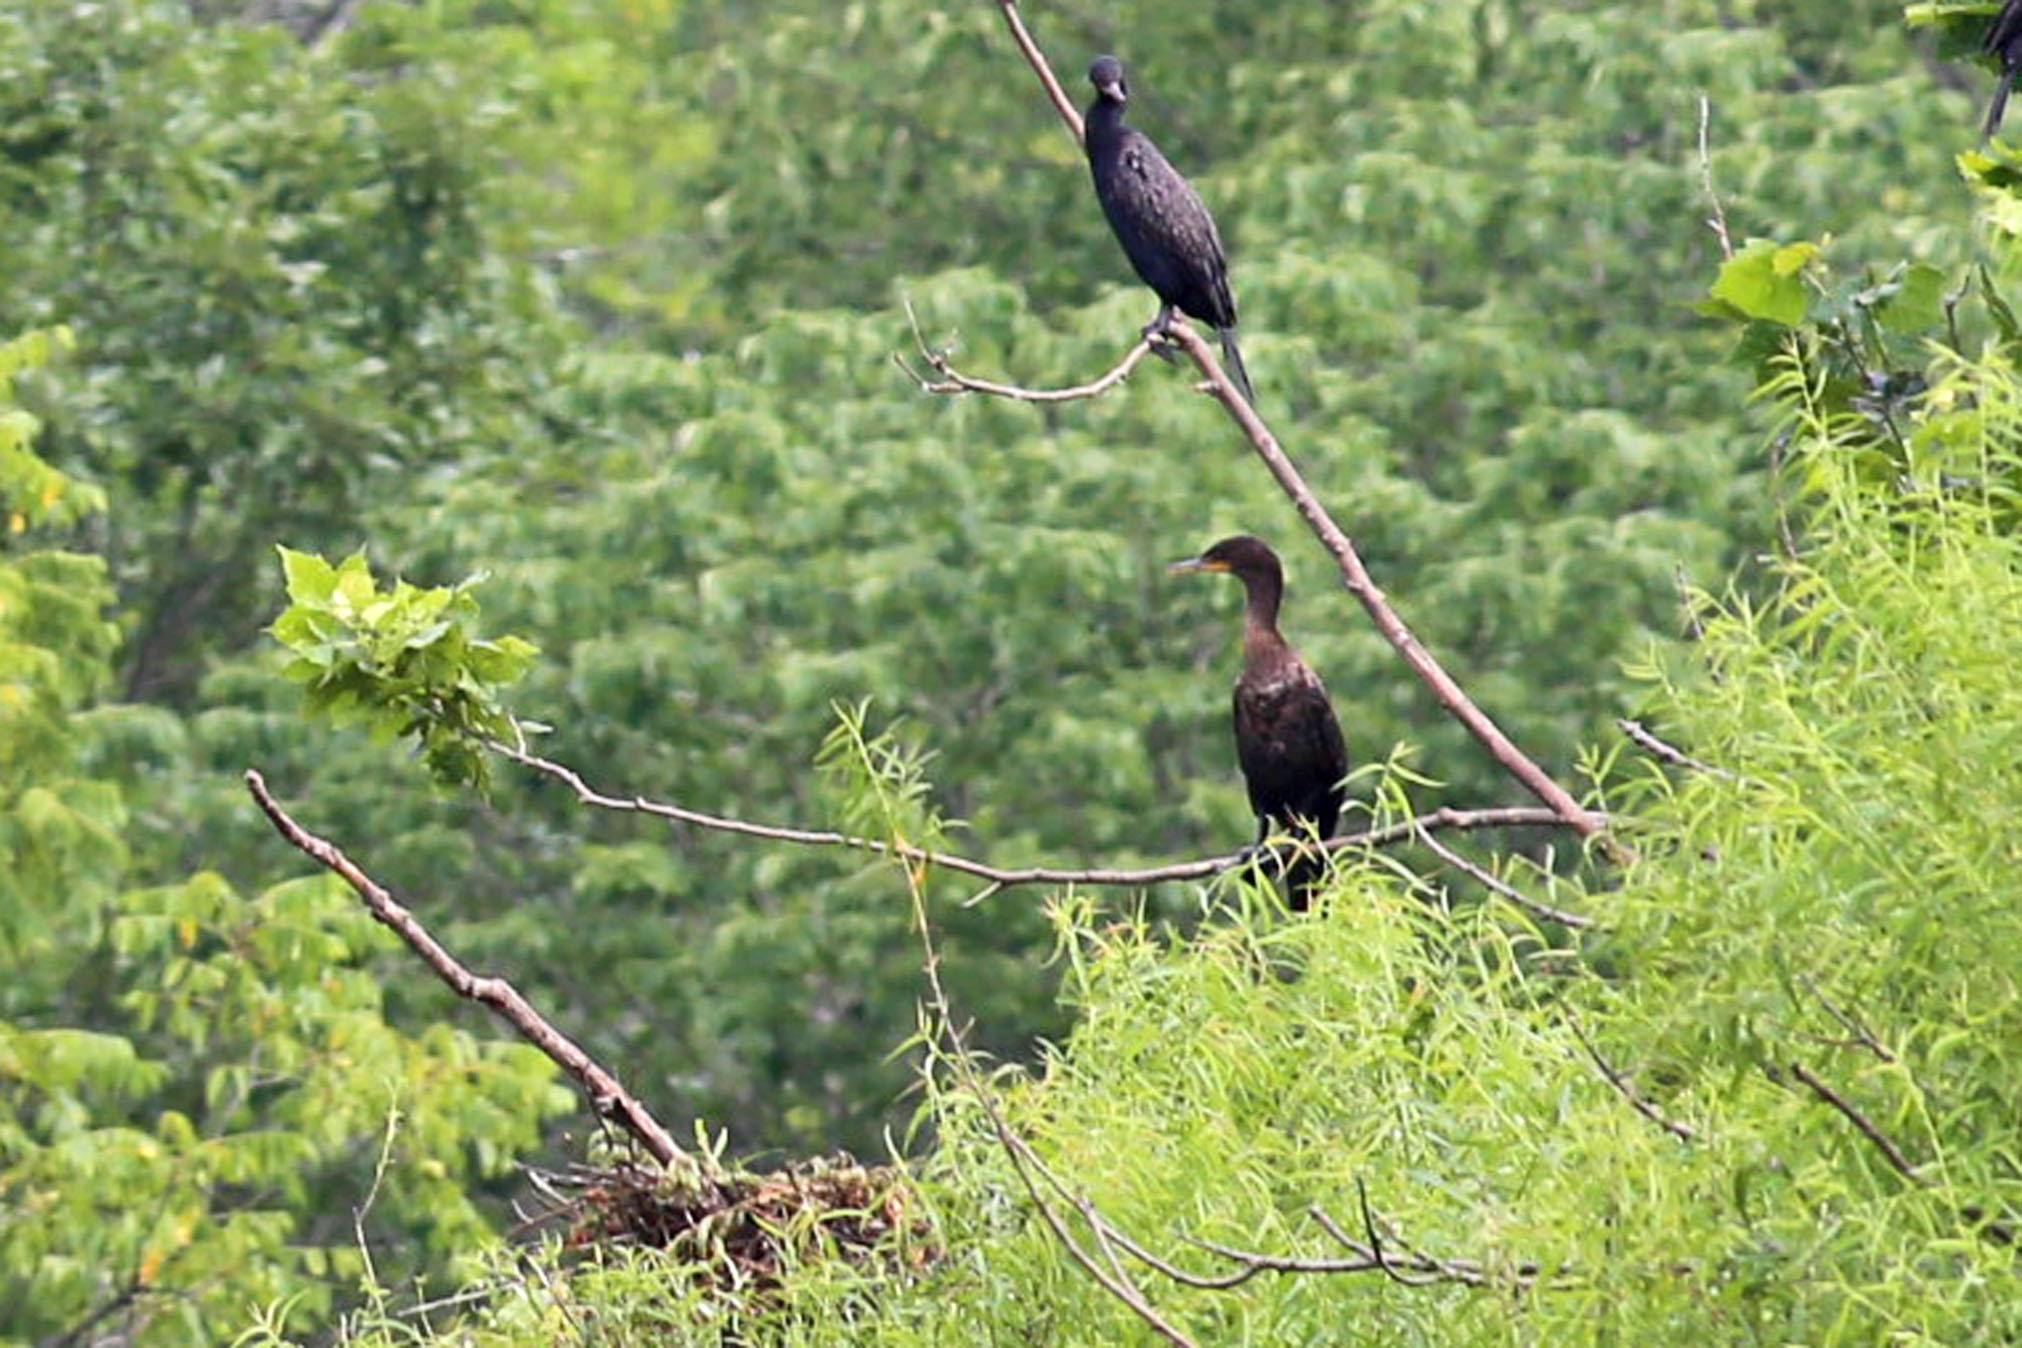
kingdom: Animalia
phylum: Chordata
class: Aves
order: Suliformes
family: Phalacrocoracidae
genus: Phalacrocorax
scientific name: Phalacrocorax auritus
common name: Double-crested cormorant
